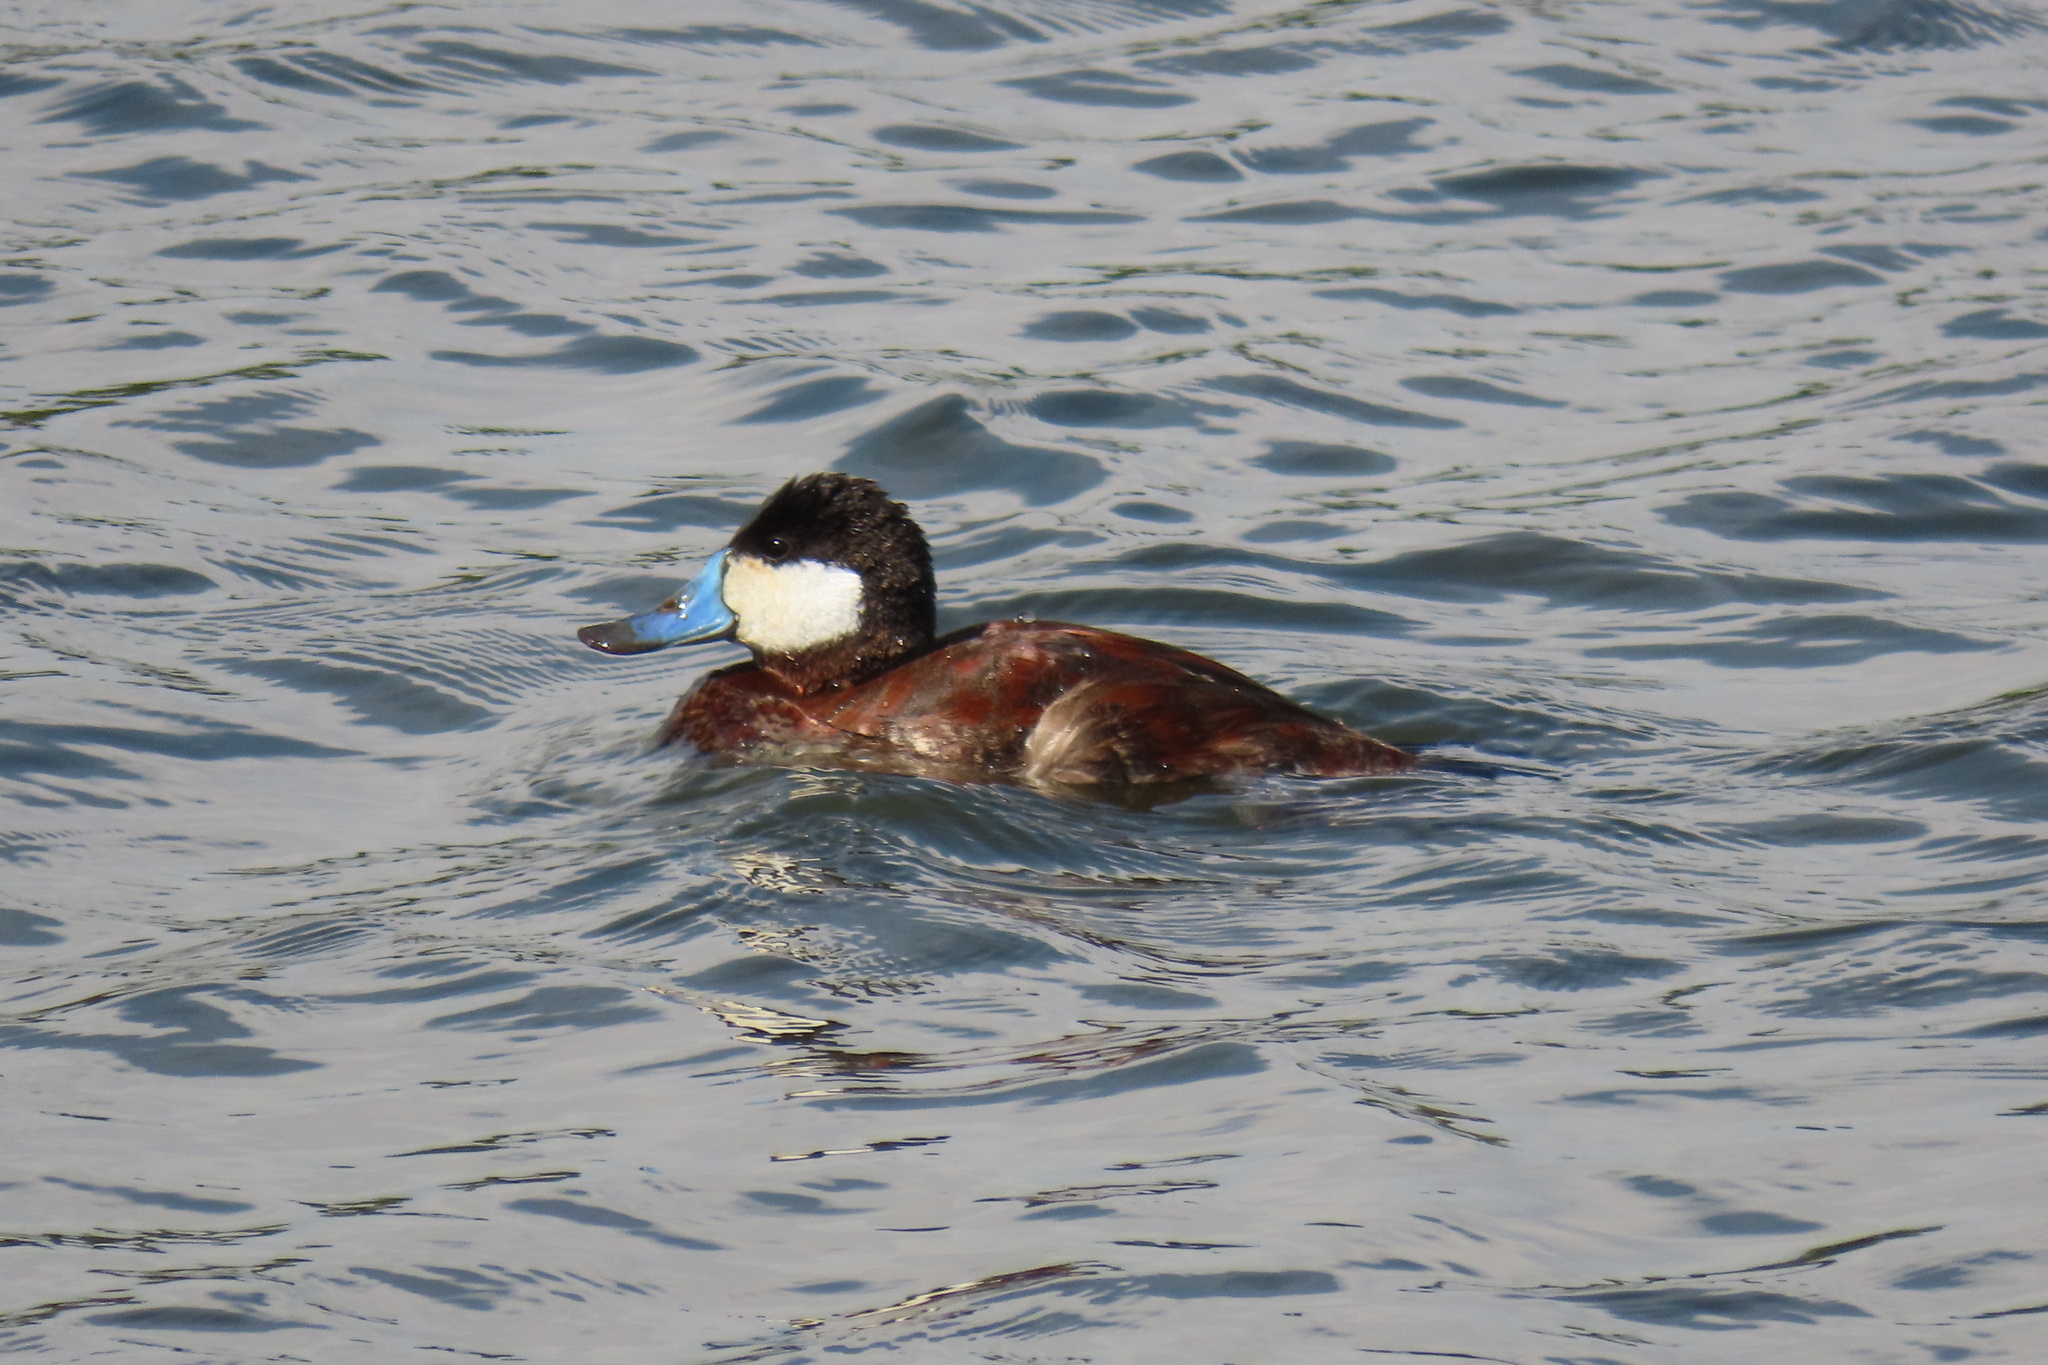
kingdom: Animalia
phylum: Chordata
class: Aves
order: Anseriformes
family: Anatidae
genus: Oxyura
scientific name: Oxyura jamaicensis
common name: Ruddy duck
